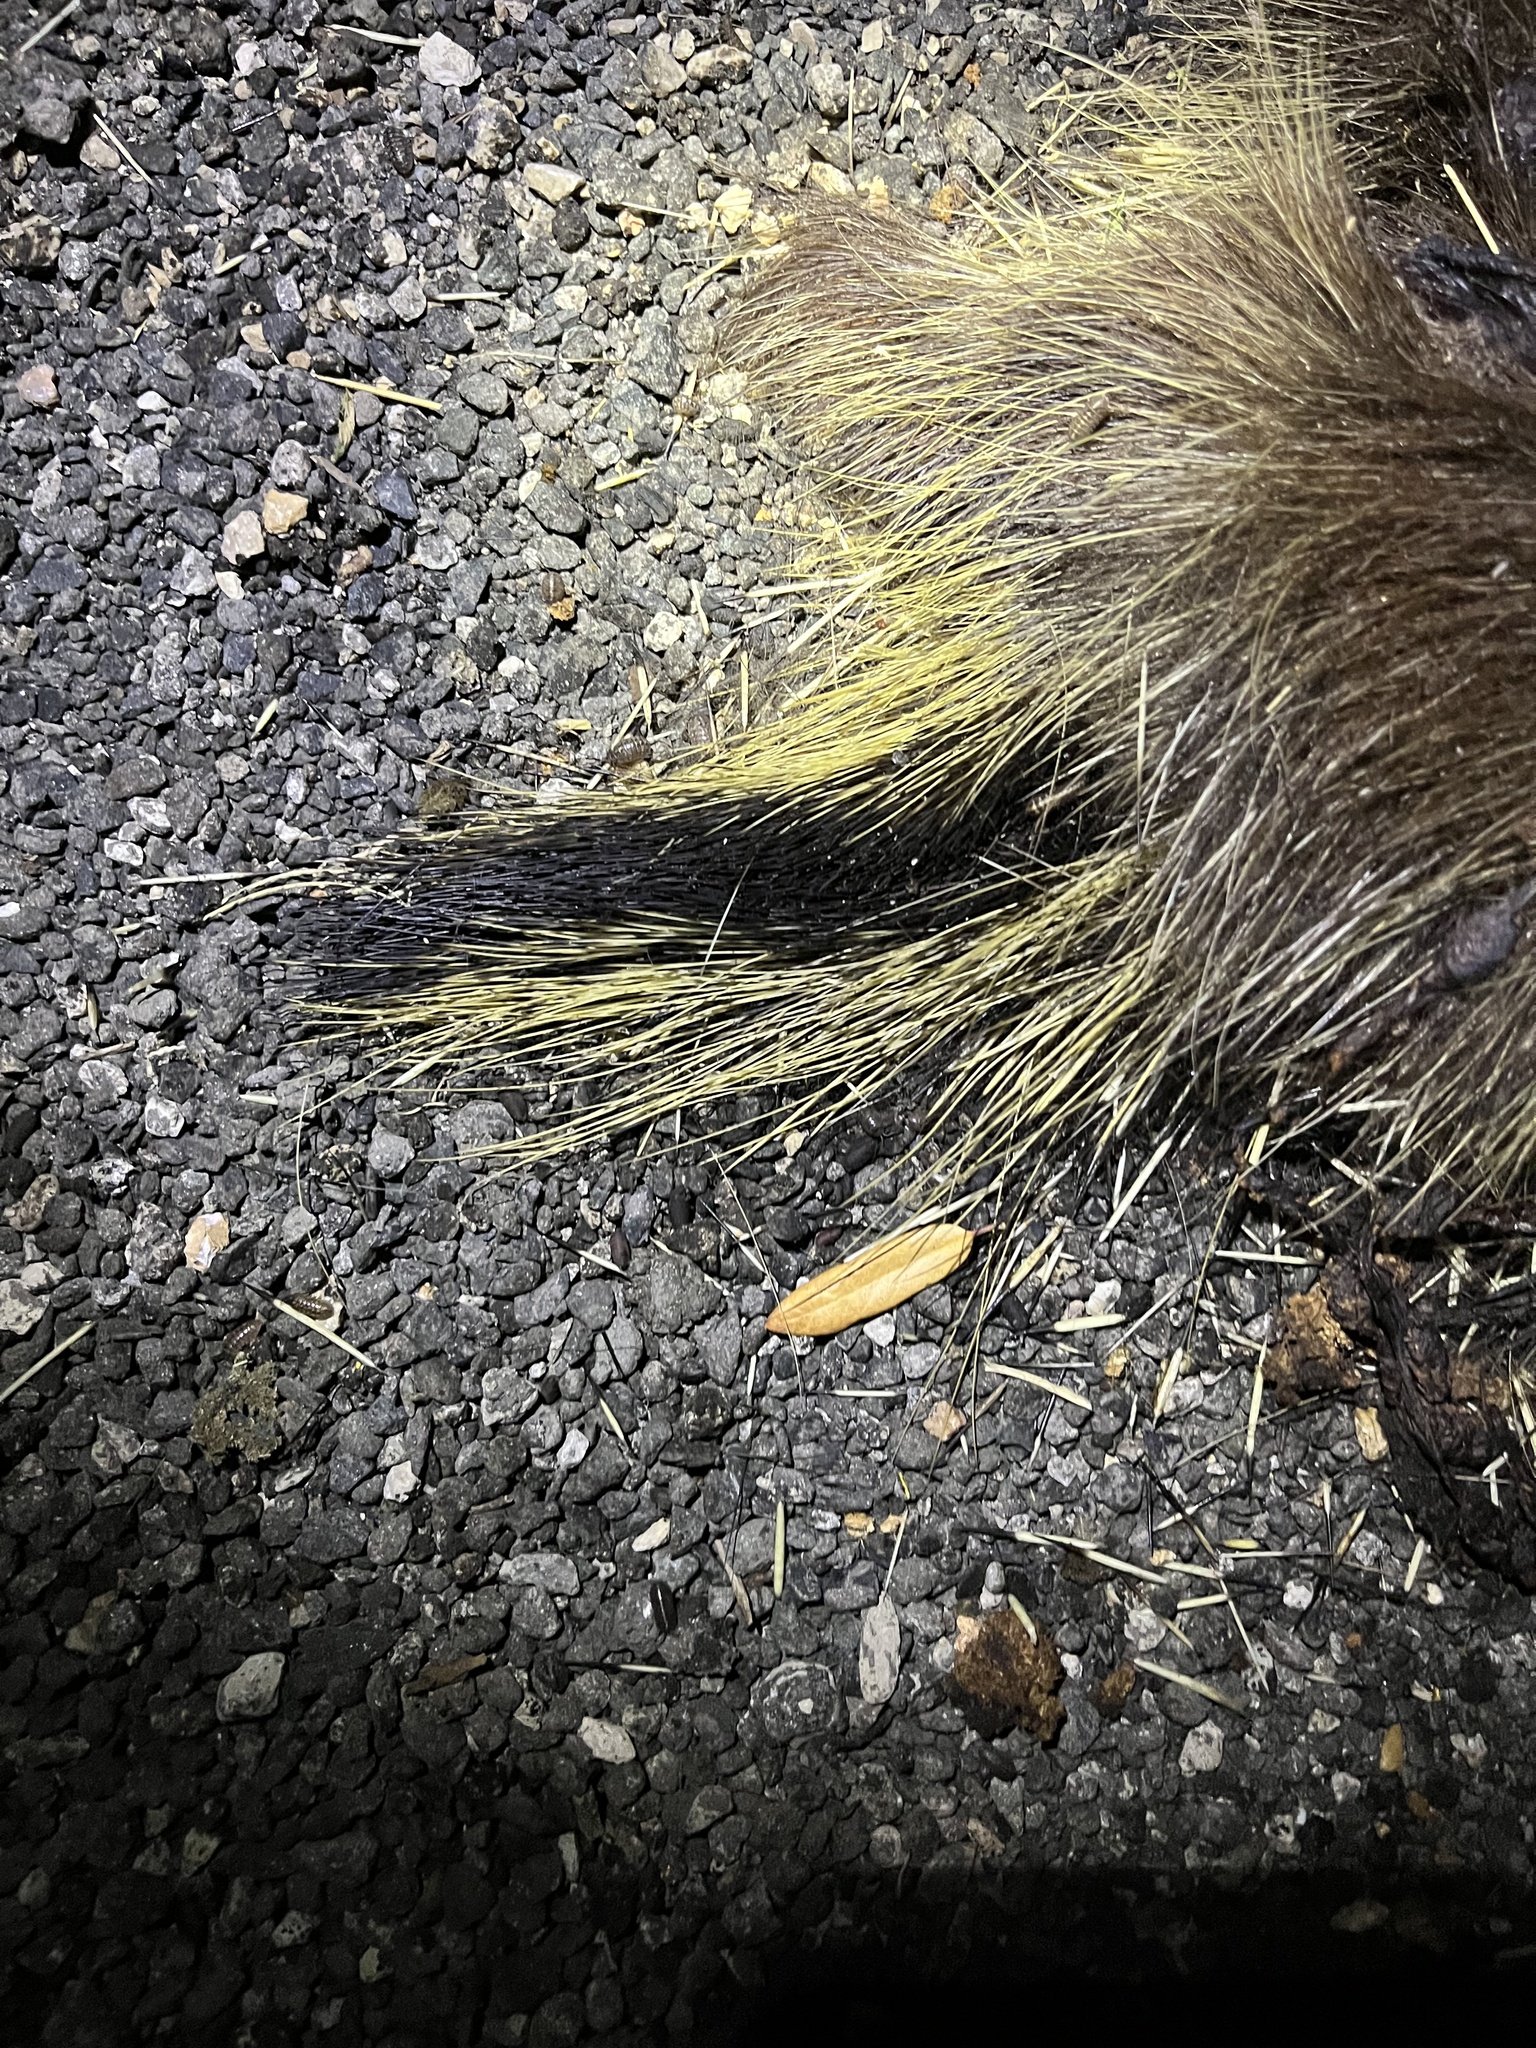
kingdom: Animalia
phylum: Chordata
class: Mammalia
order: Rodentia
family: Erethizontidae
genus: Erethizon
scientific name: Erethizon dorsatus
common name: North american porcupine
